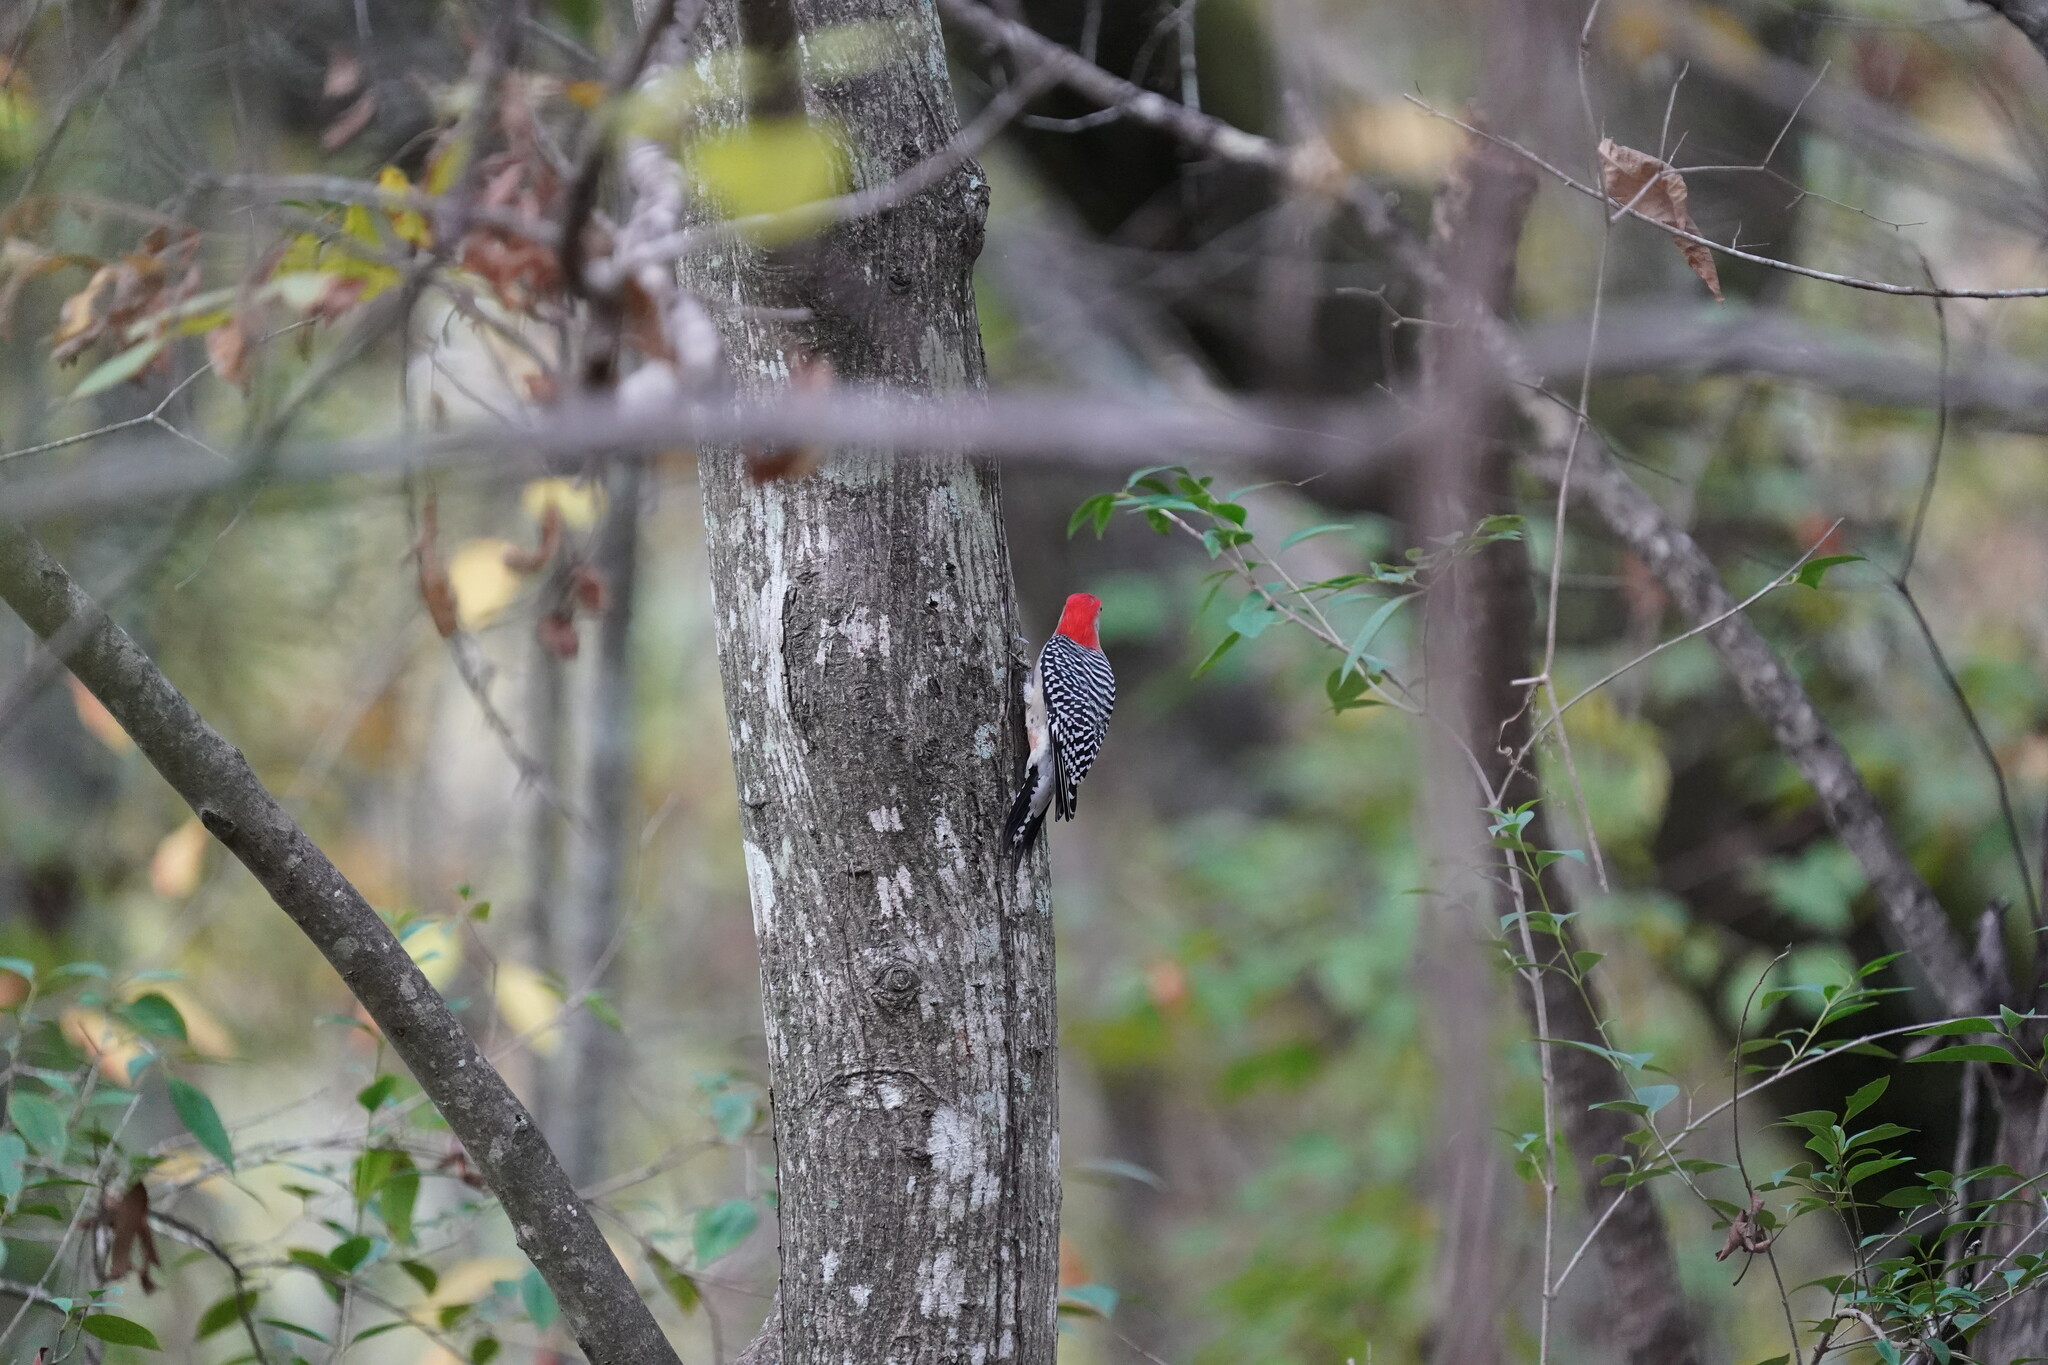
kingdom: Animalia
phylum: Chordata
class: Aves
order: Piciformes
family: Picidae
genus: Melanerpes
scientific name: Melanerpes carolinus
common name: Red-bellied woodpecker
